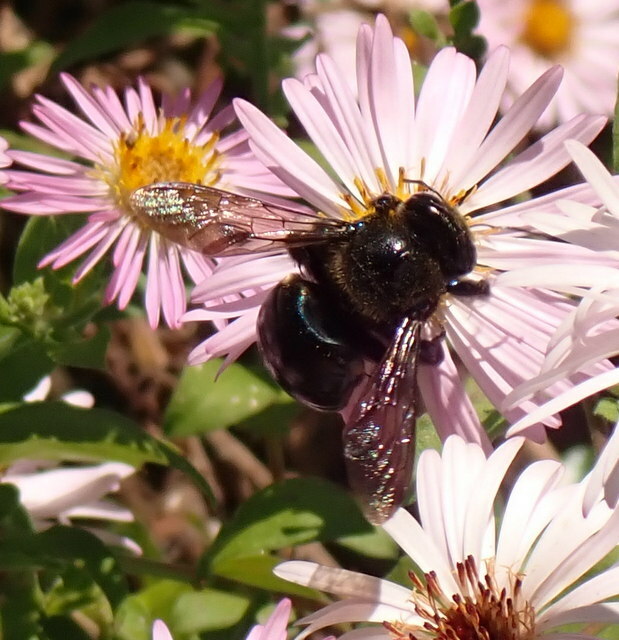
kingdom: Animalia
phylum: Arthropoda
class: Insecta
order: Hymenoptera
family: Apidae
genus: Xylocopa
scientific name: Xylocopa micans
